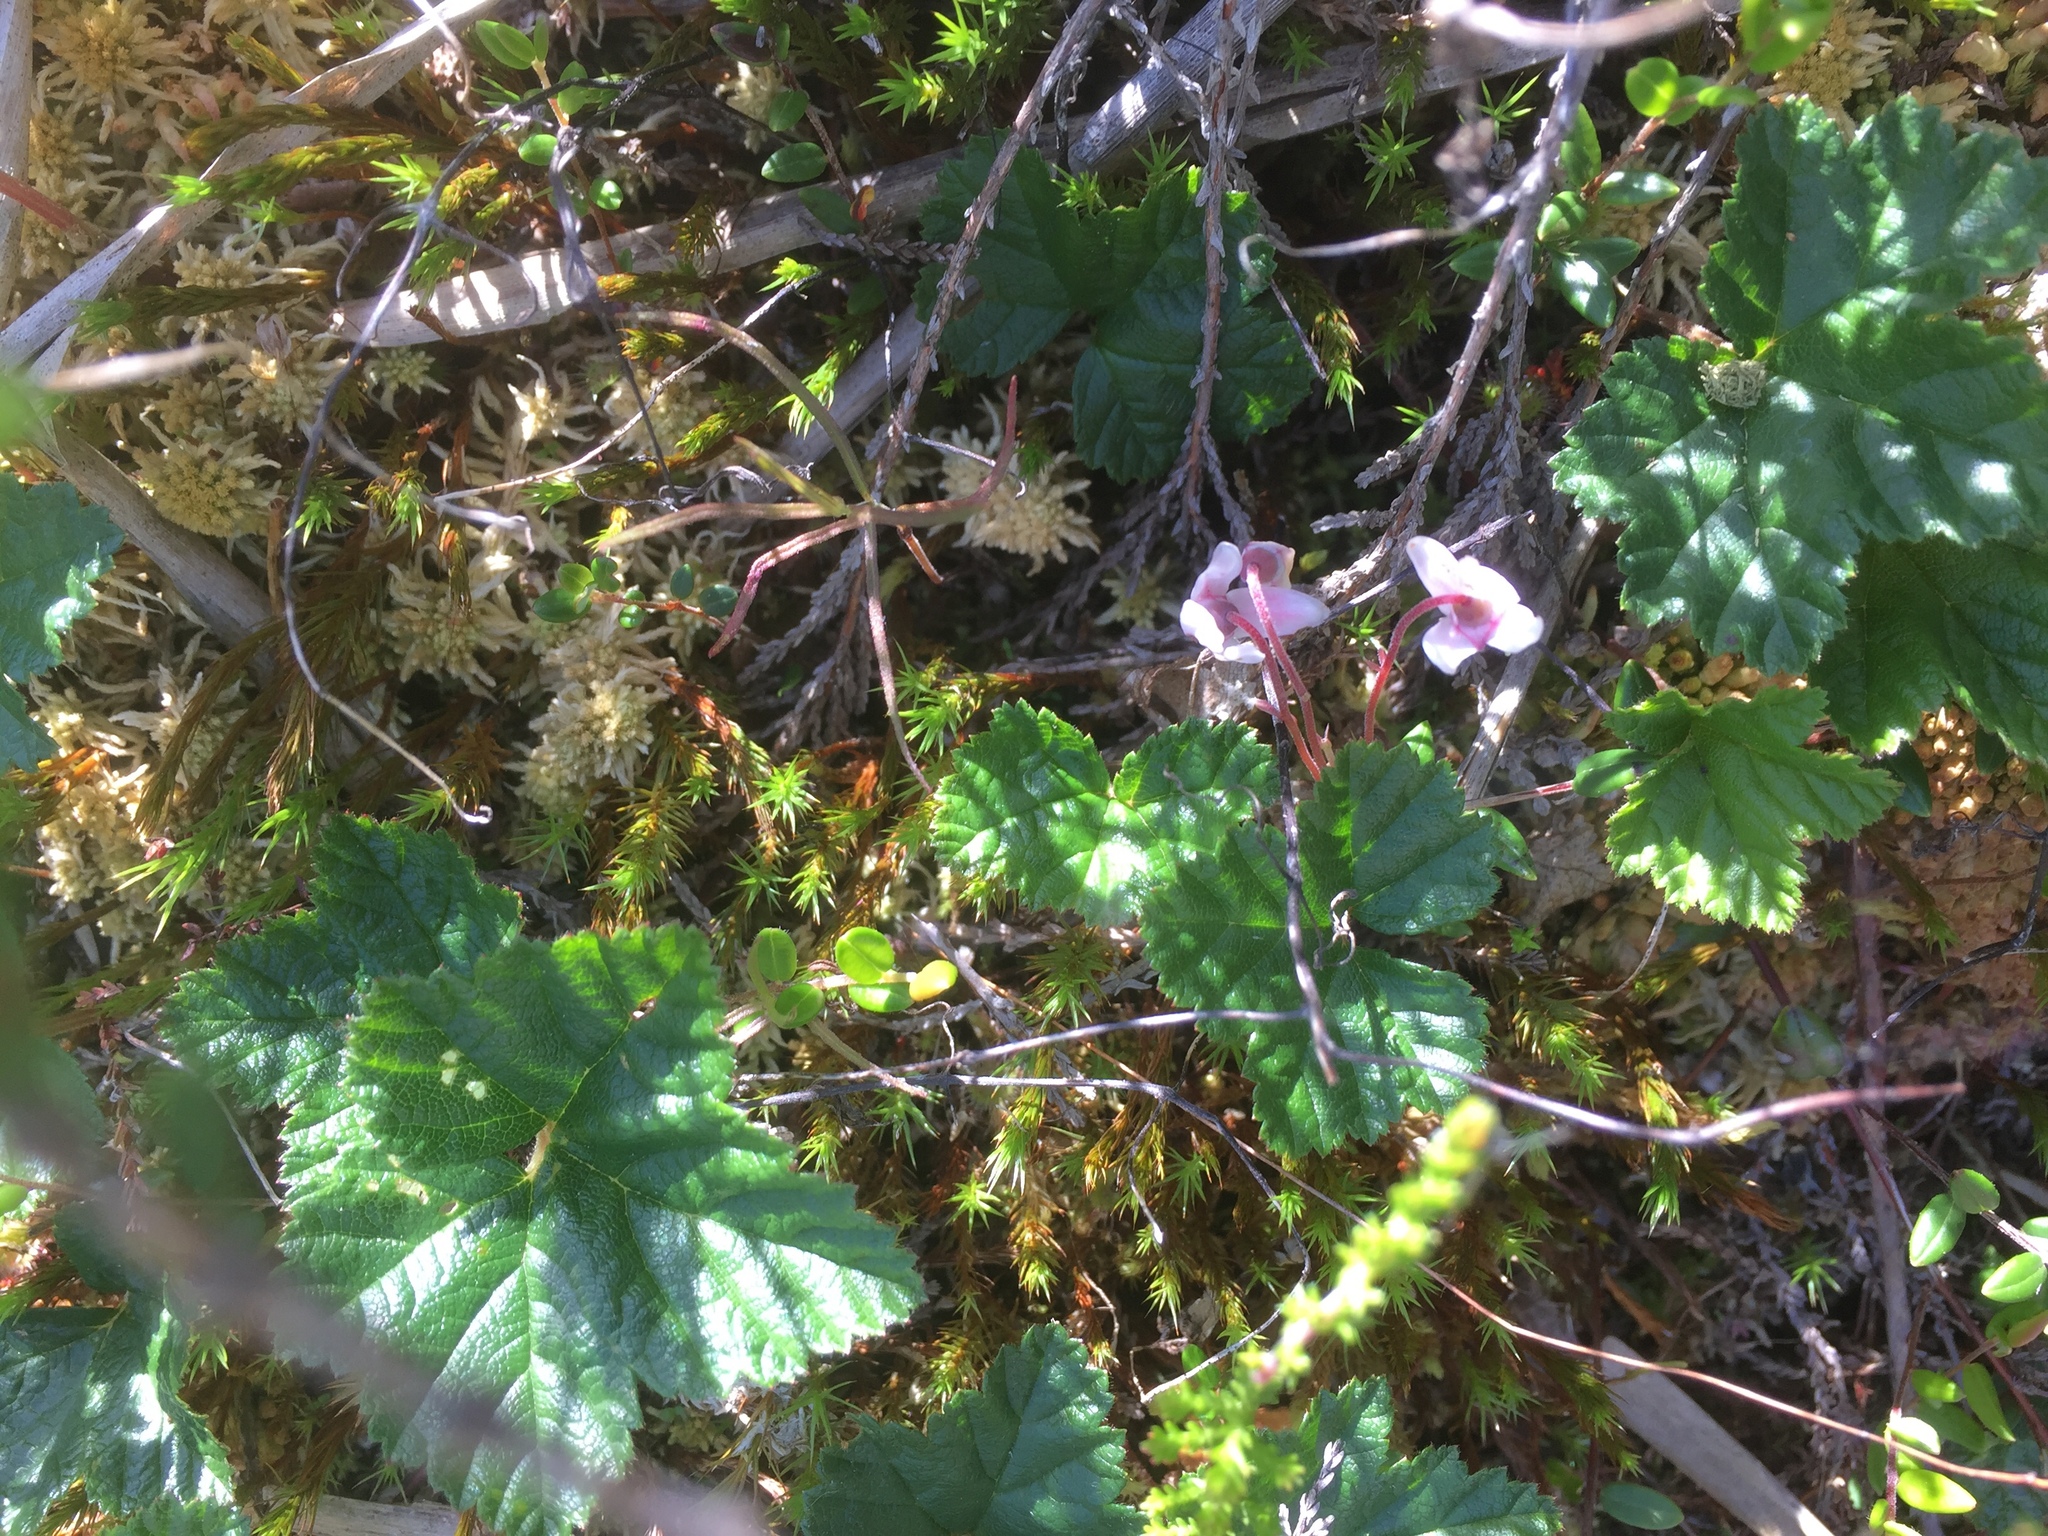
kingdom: Plantae
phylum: Tracheophyta
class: Magnoliopsida
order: Rosales
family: Rosaceae
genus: Rubus
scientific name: Rubus chamaemorus
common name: Cloudberry
